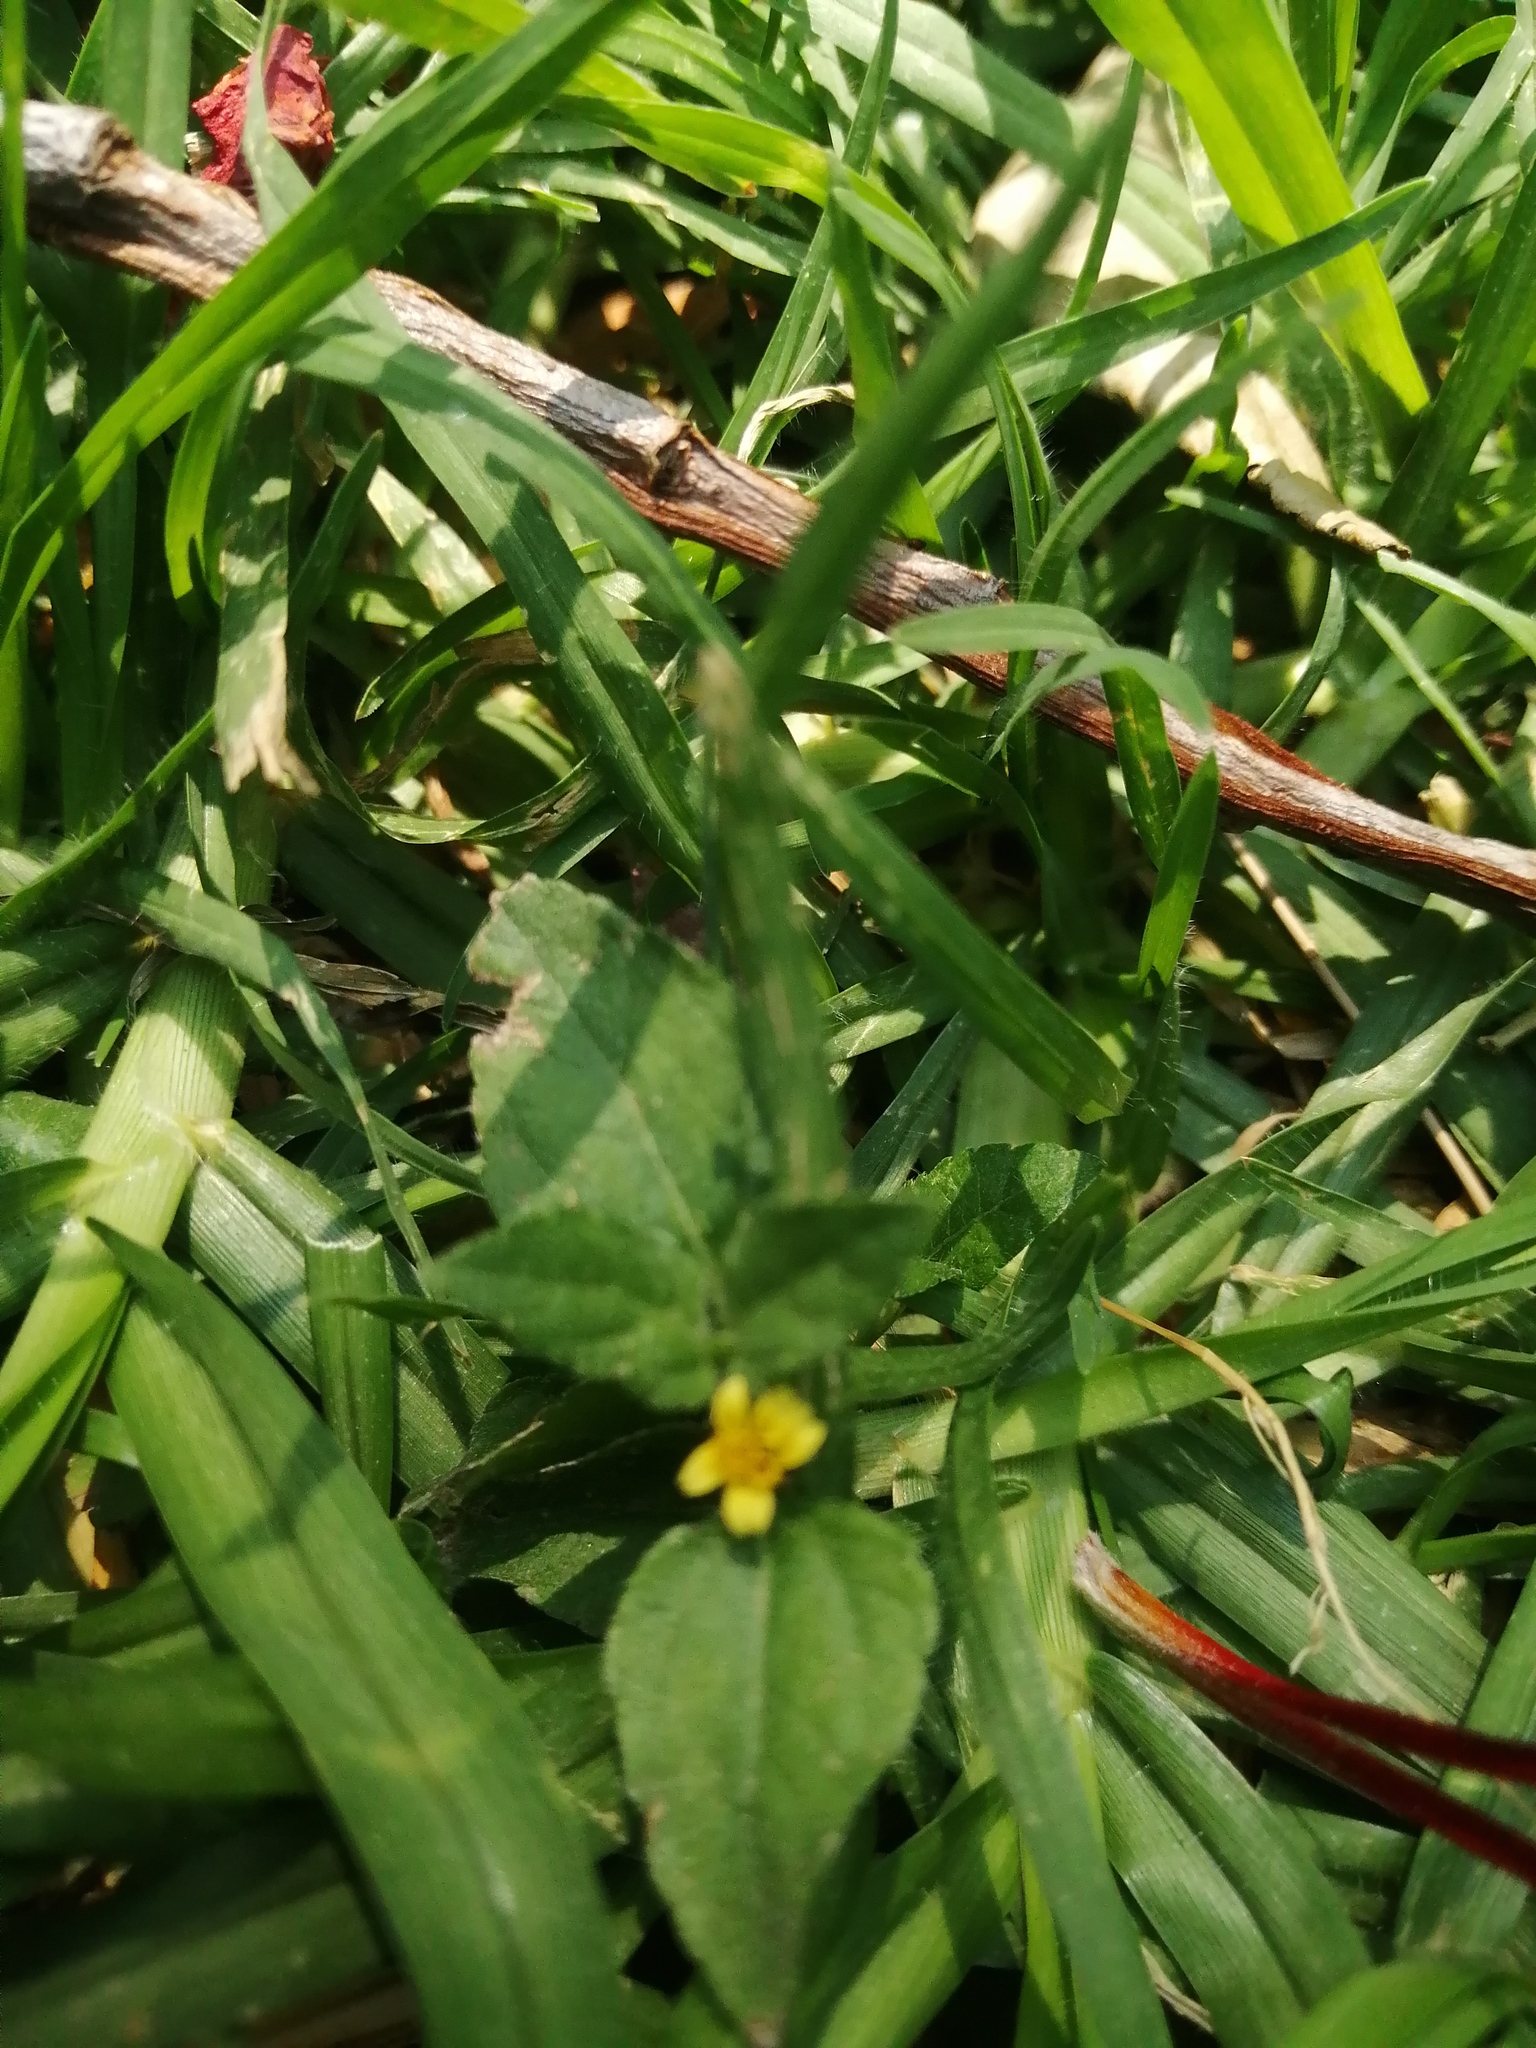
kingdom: Plantae
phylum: Tracheophyta
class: Magnoliopsida
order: Asterales
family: Asteraceae
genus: Calyptocarpus
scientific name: Calyptocarpus vialis
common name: Straggler daisy
